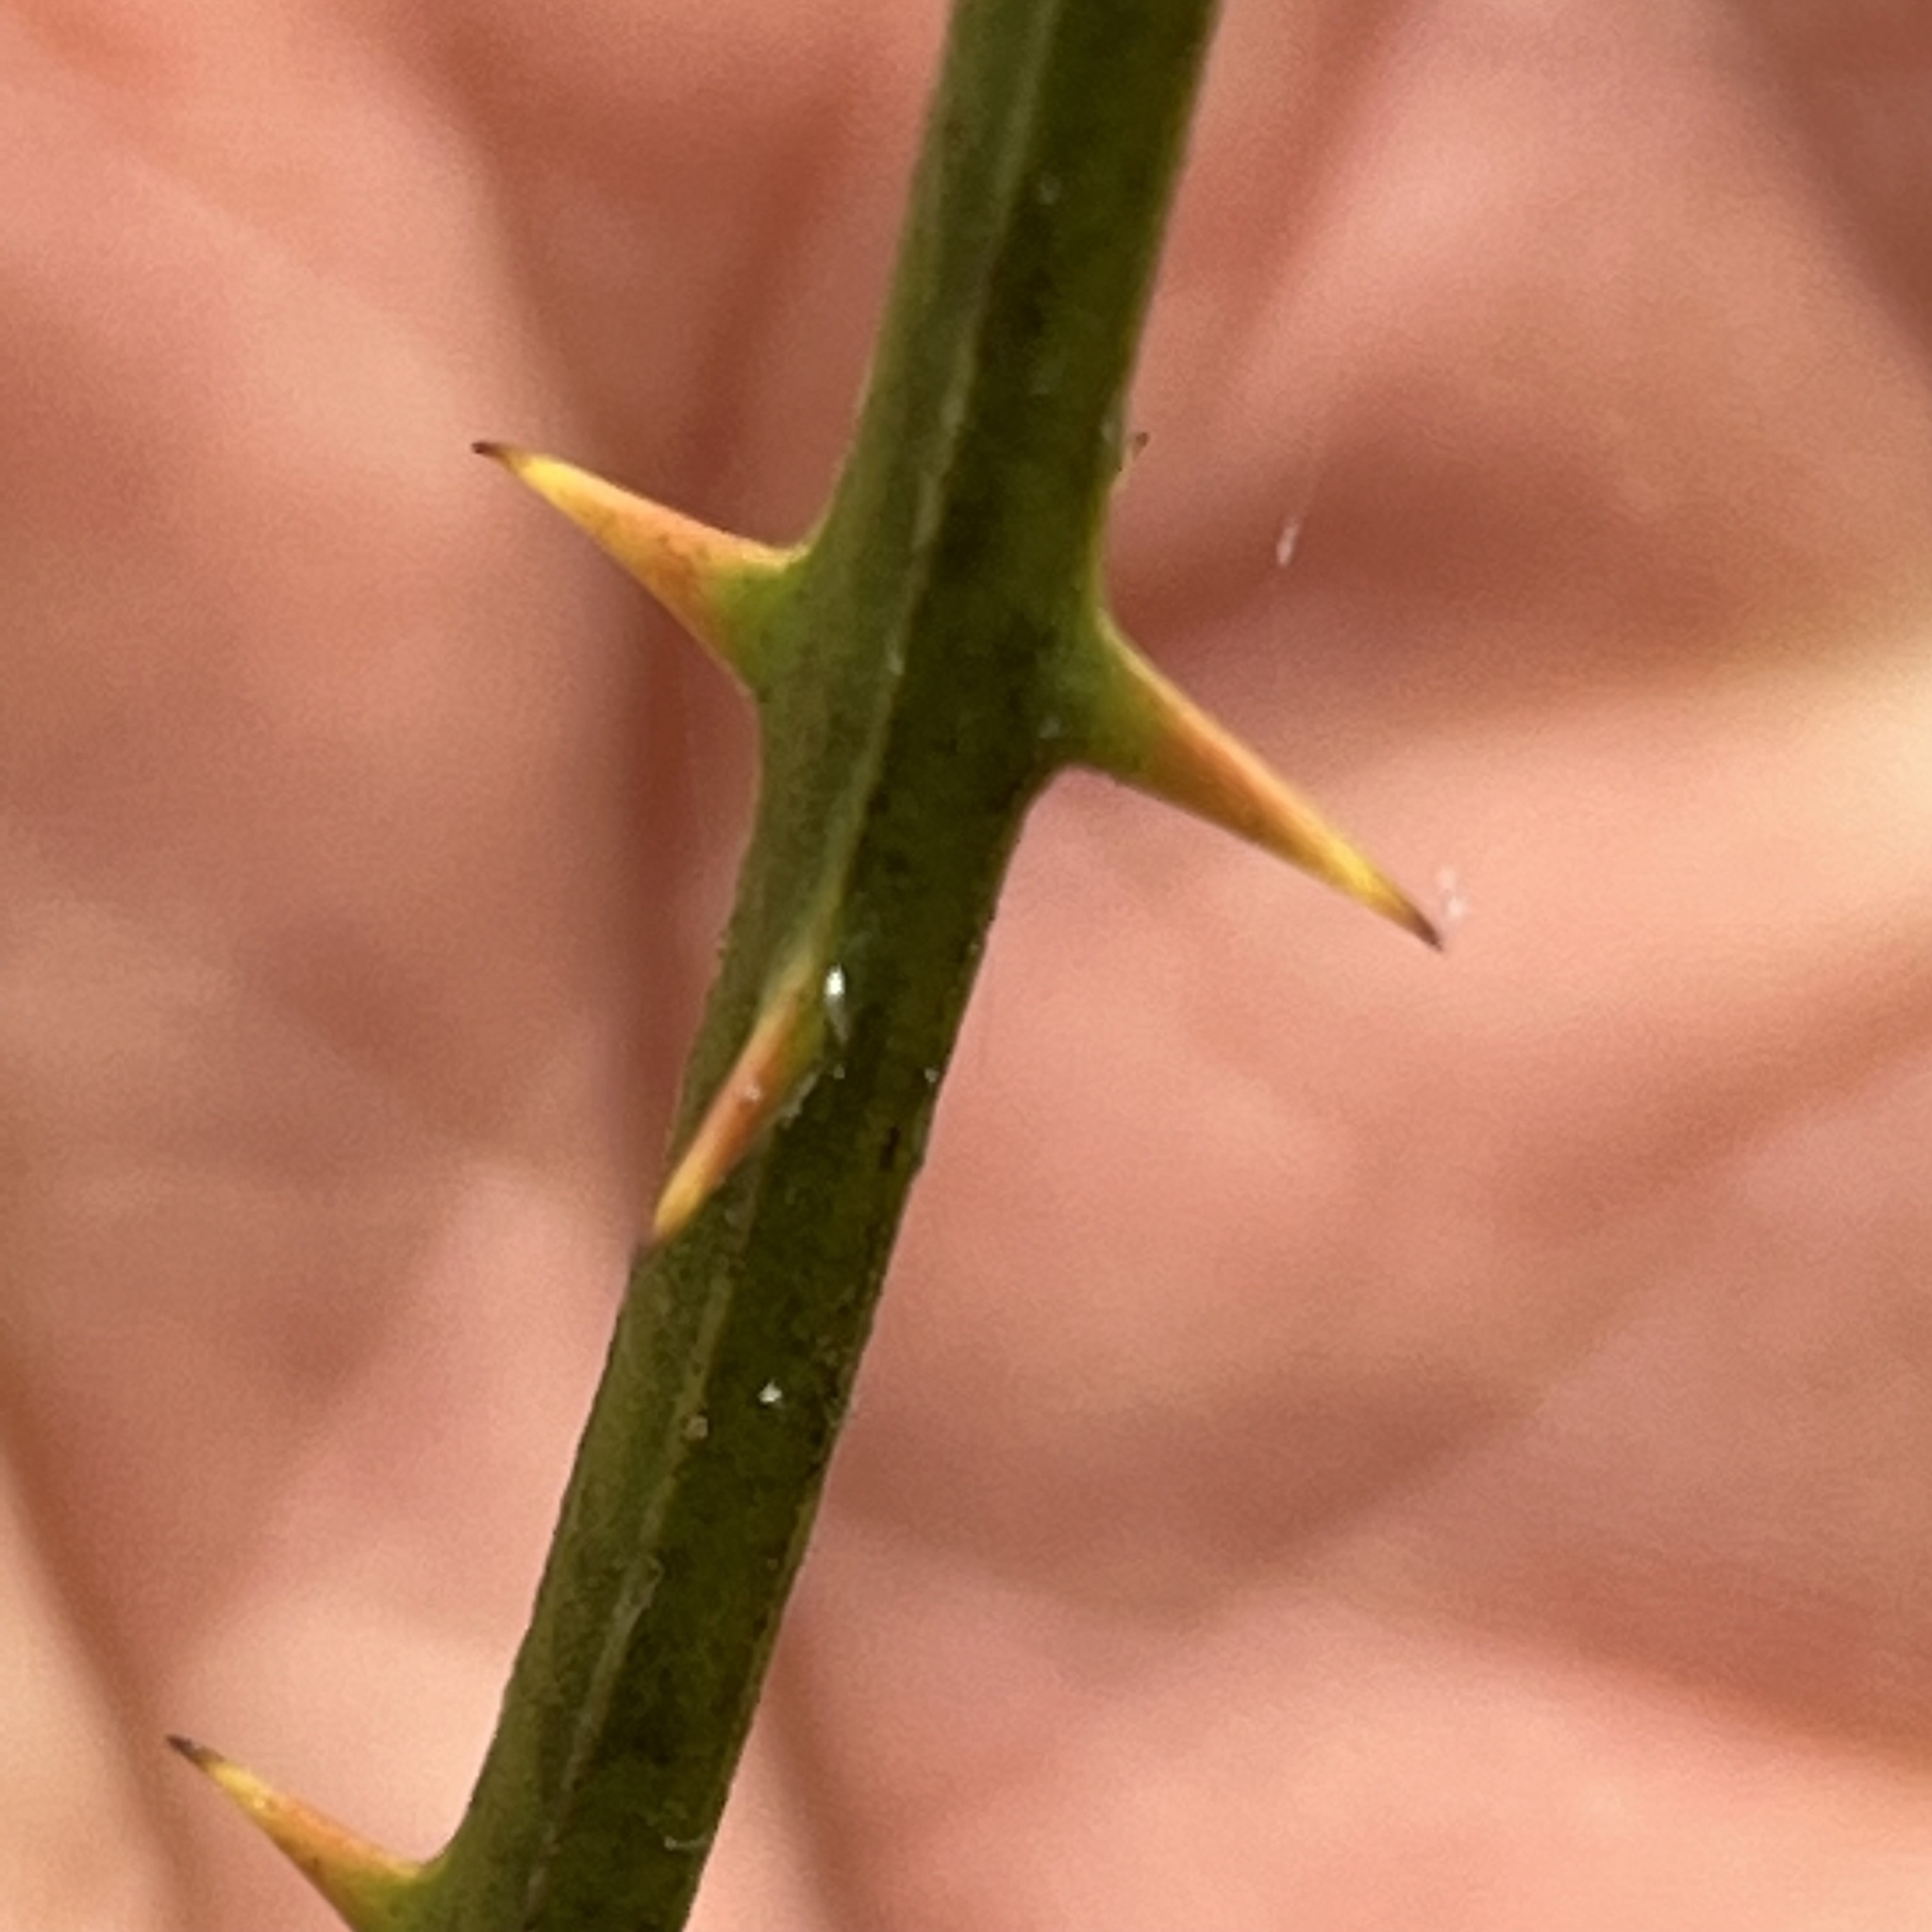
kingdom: Plantae
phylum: Tracheophyta
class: Liliopsida
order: Liliales
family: Smilacaceae
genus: Smilax
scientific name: Smilax rotundifolia
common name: Bullbriar
